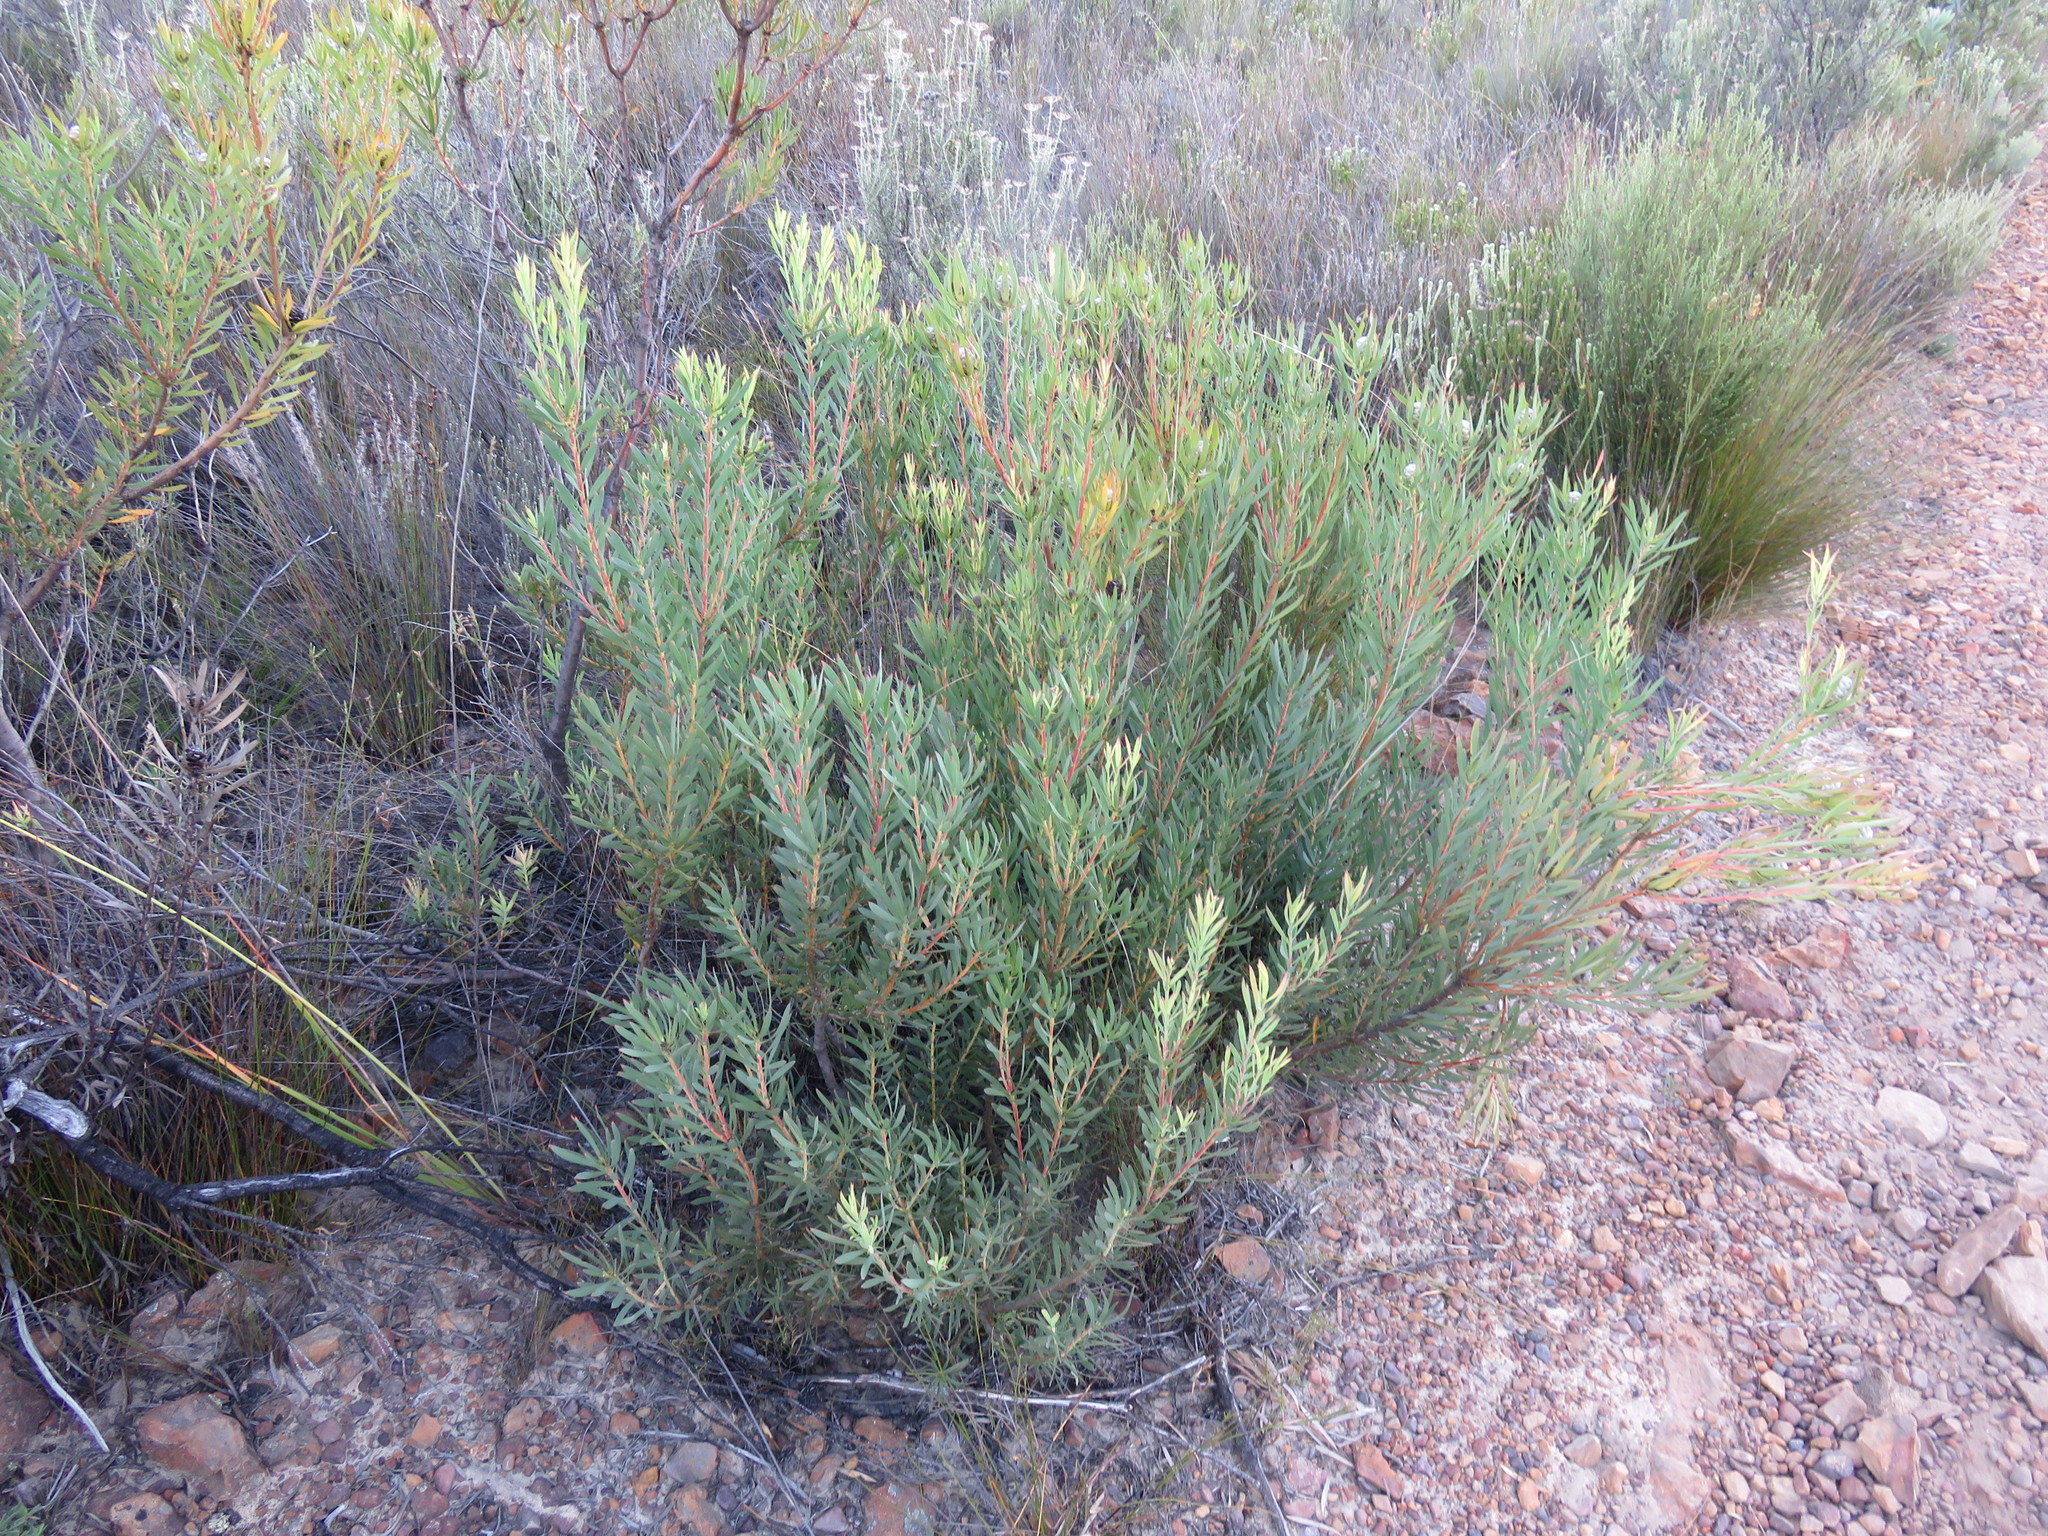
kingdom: Plantae
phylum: Tracheophyta
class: Magnoliopsida
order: Proteales
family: Proteaceae
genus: Leucadendron
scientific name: Leucadendron salignum
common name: Common sunshine conebush
